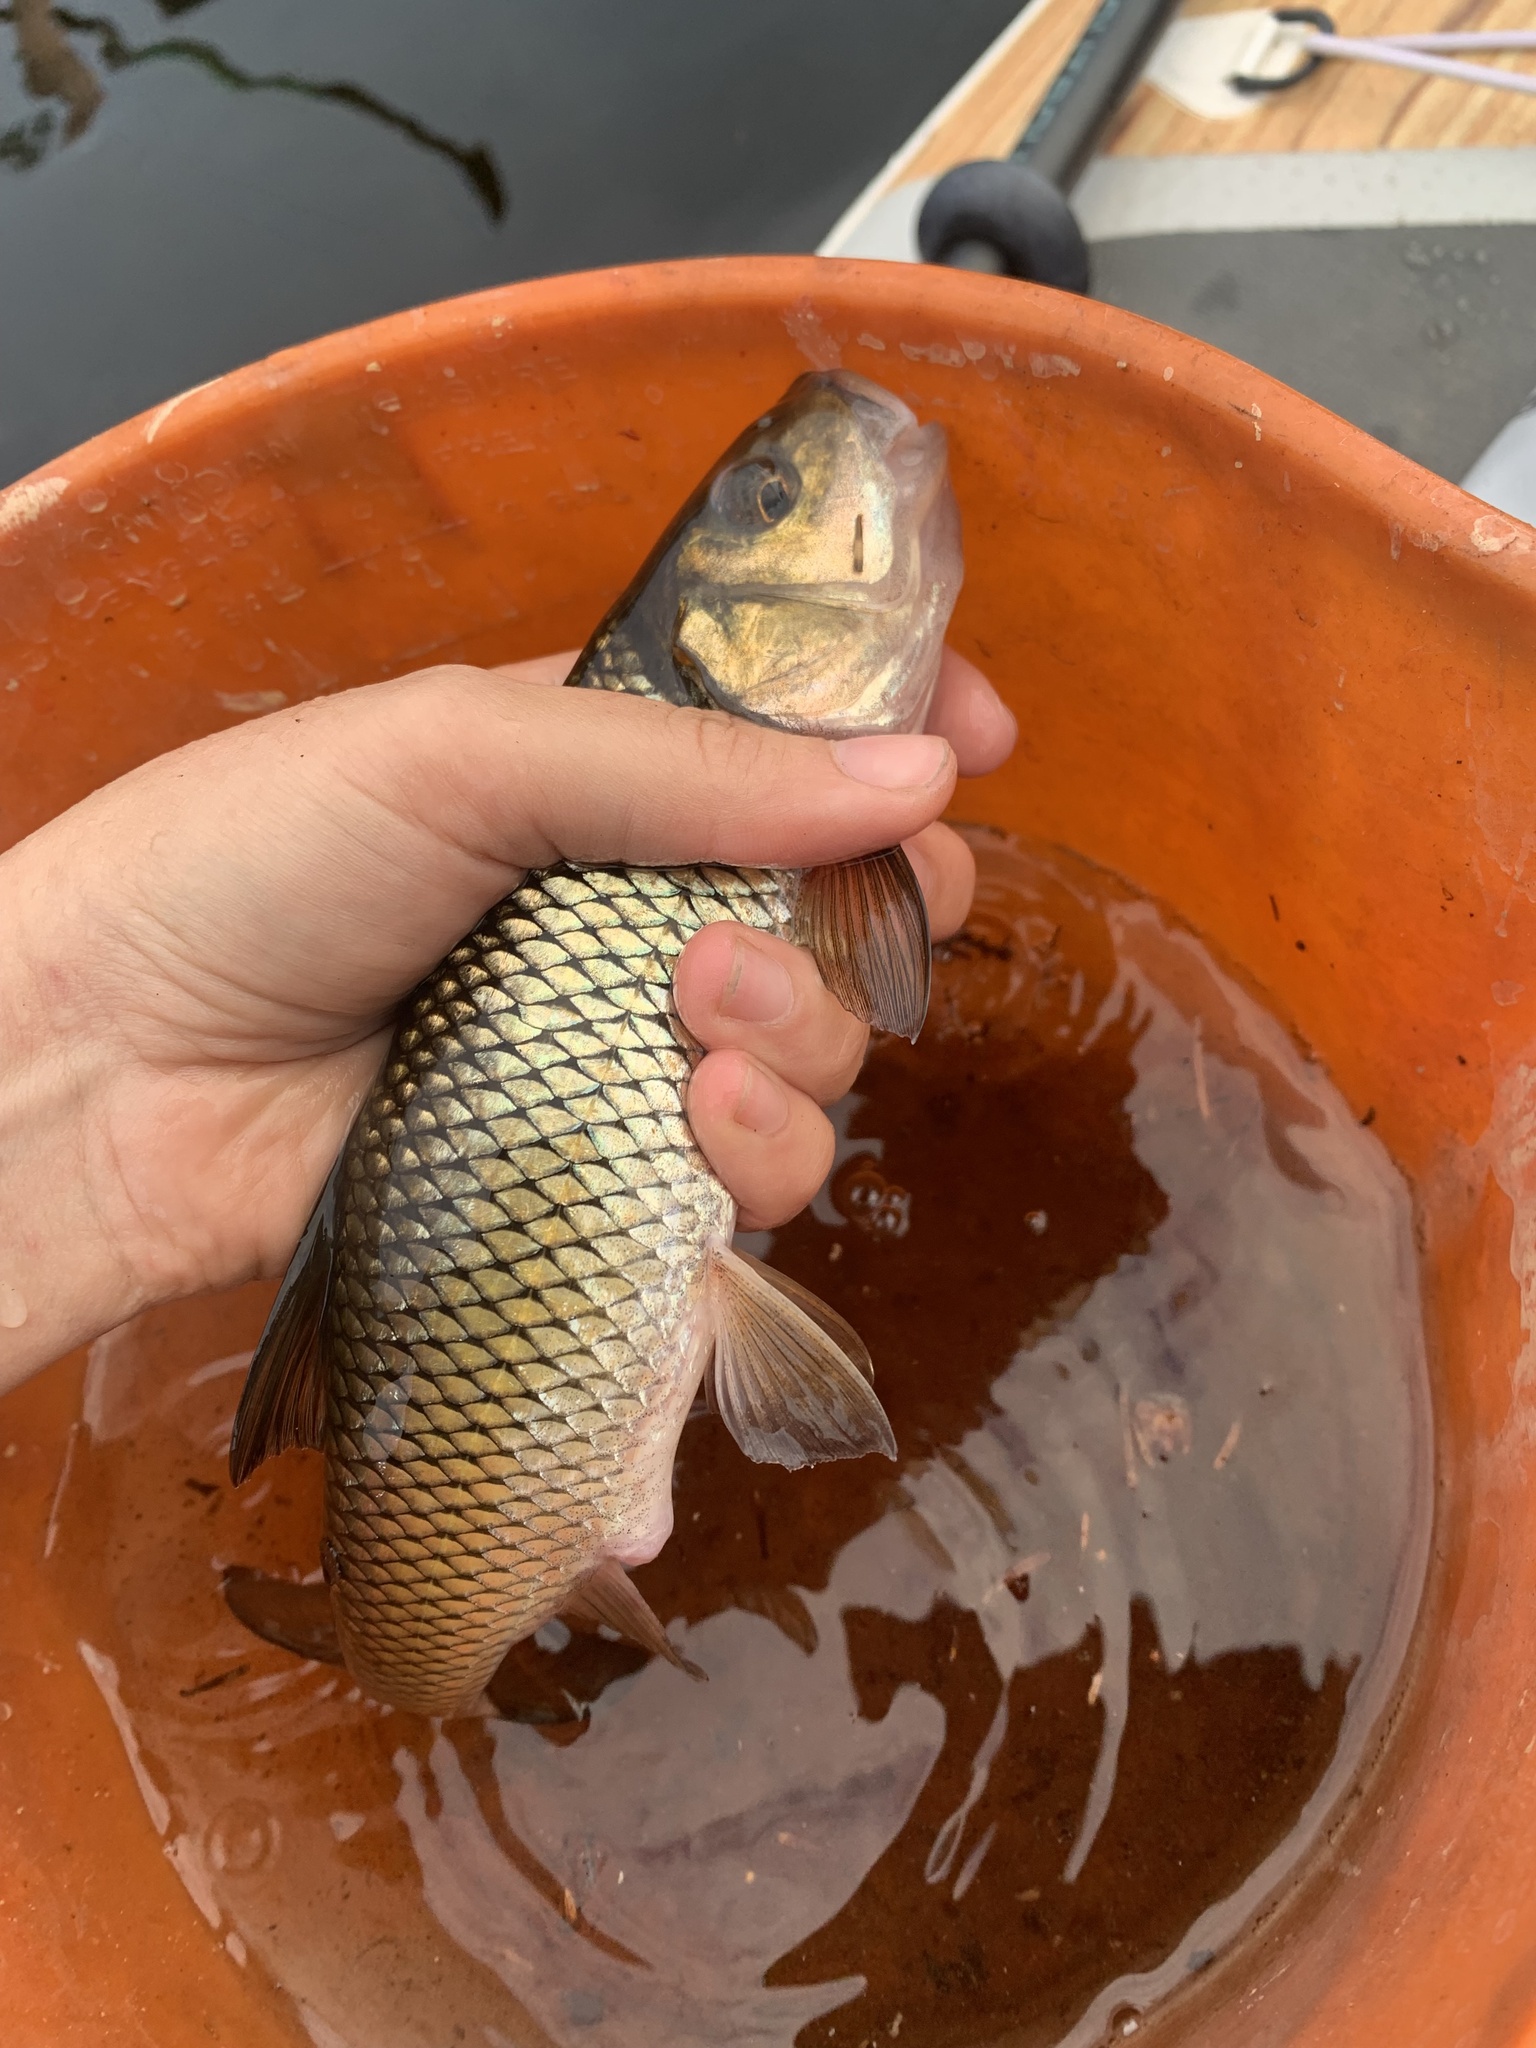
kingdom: Animalia
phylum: Chordata
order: Cypriniformes
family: Cyprinidae
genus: Semotilus
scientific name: Semotilus corporalis
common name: Fallfish
